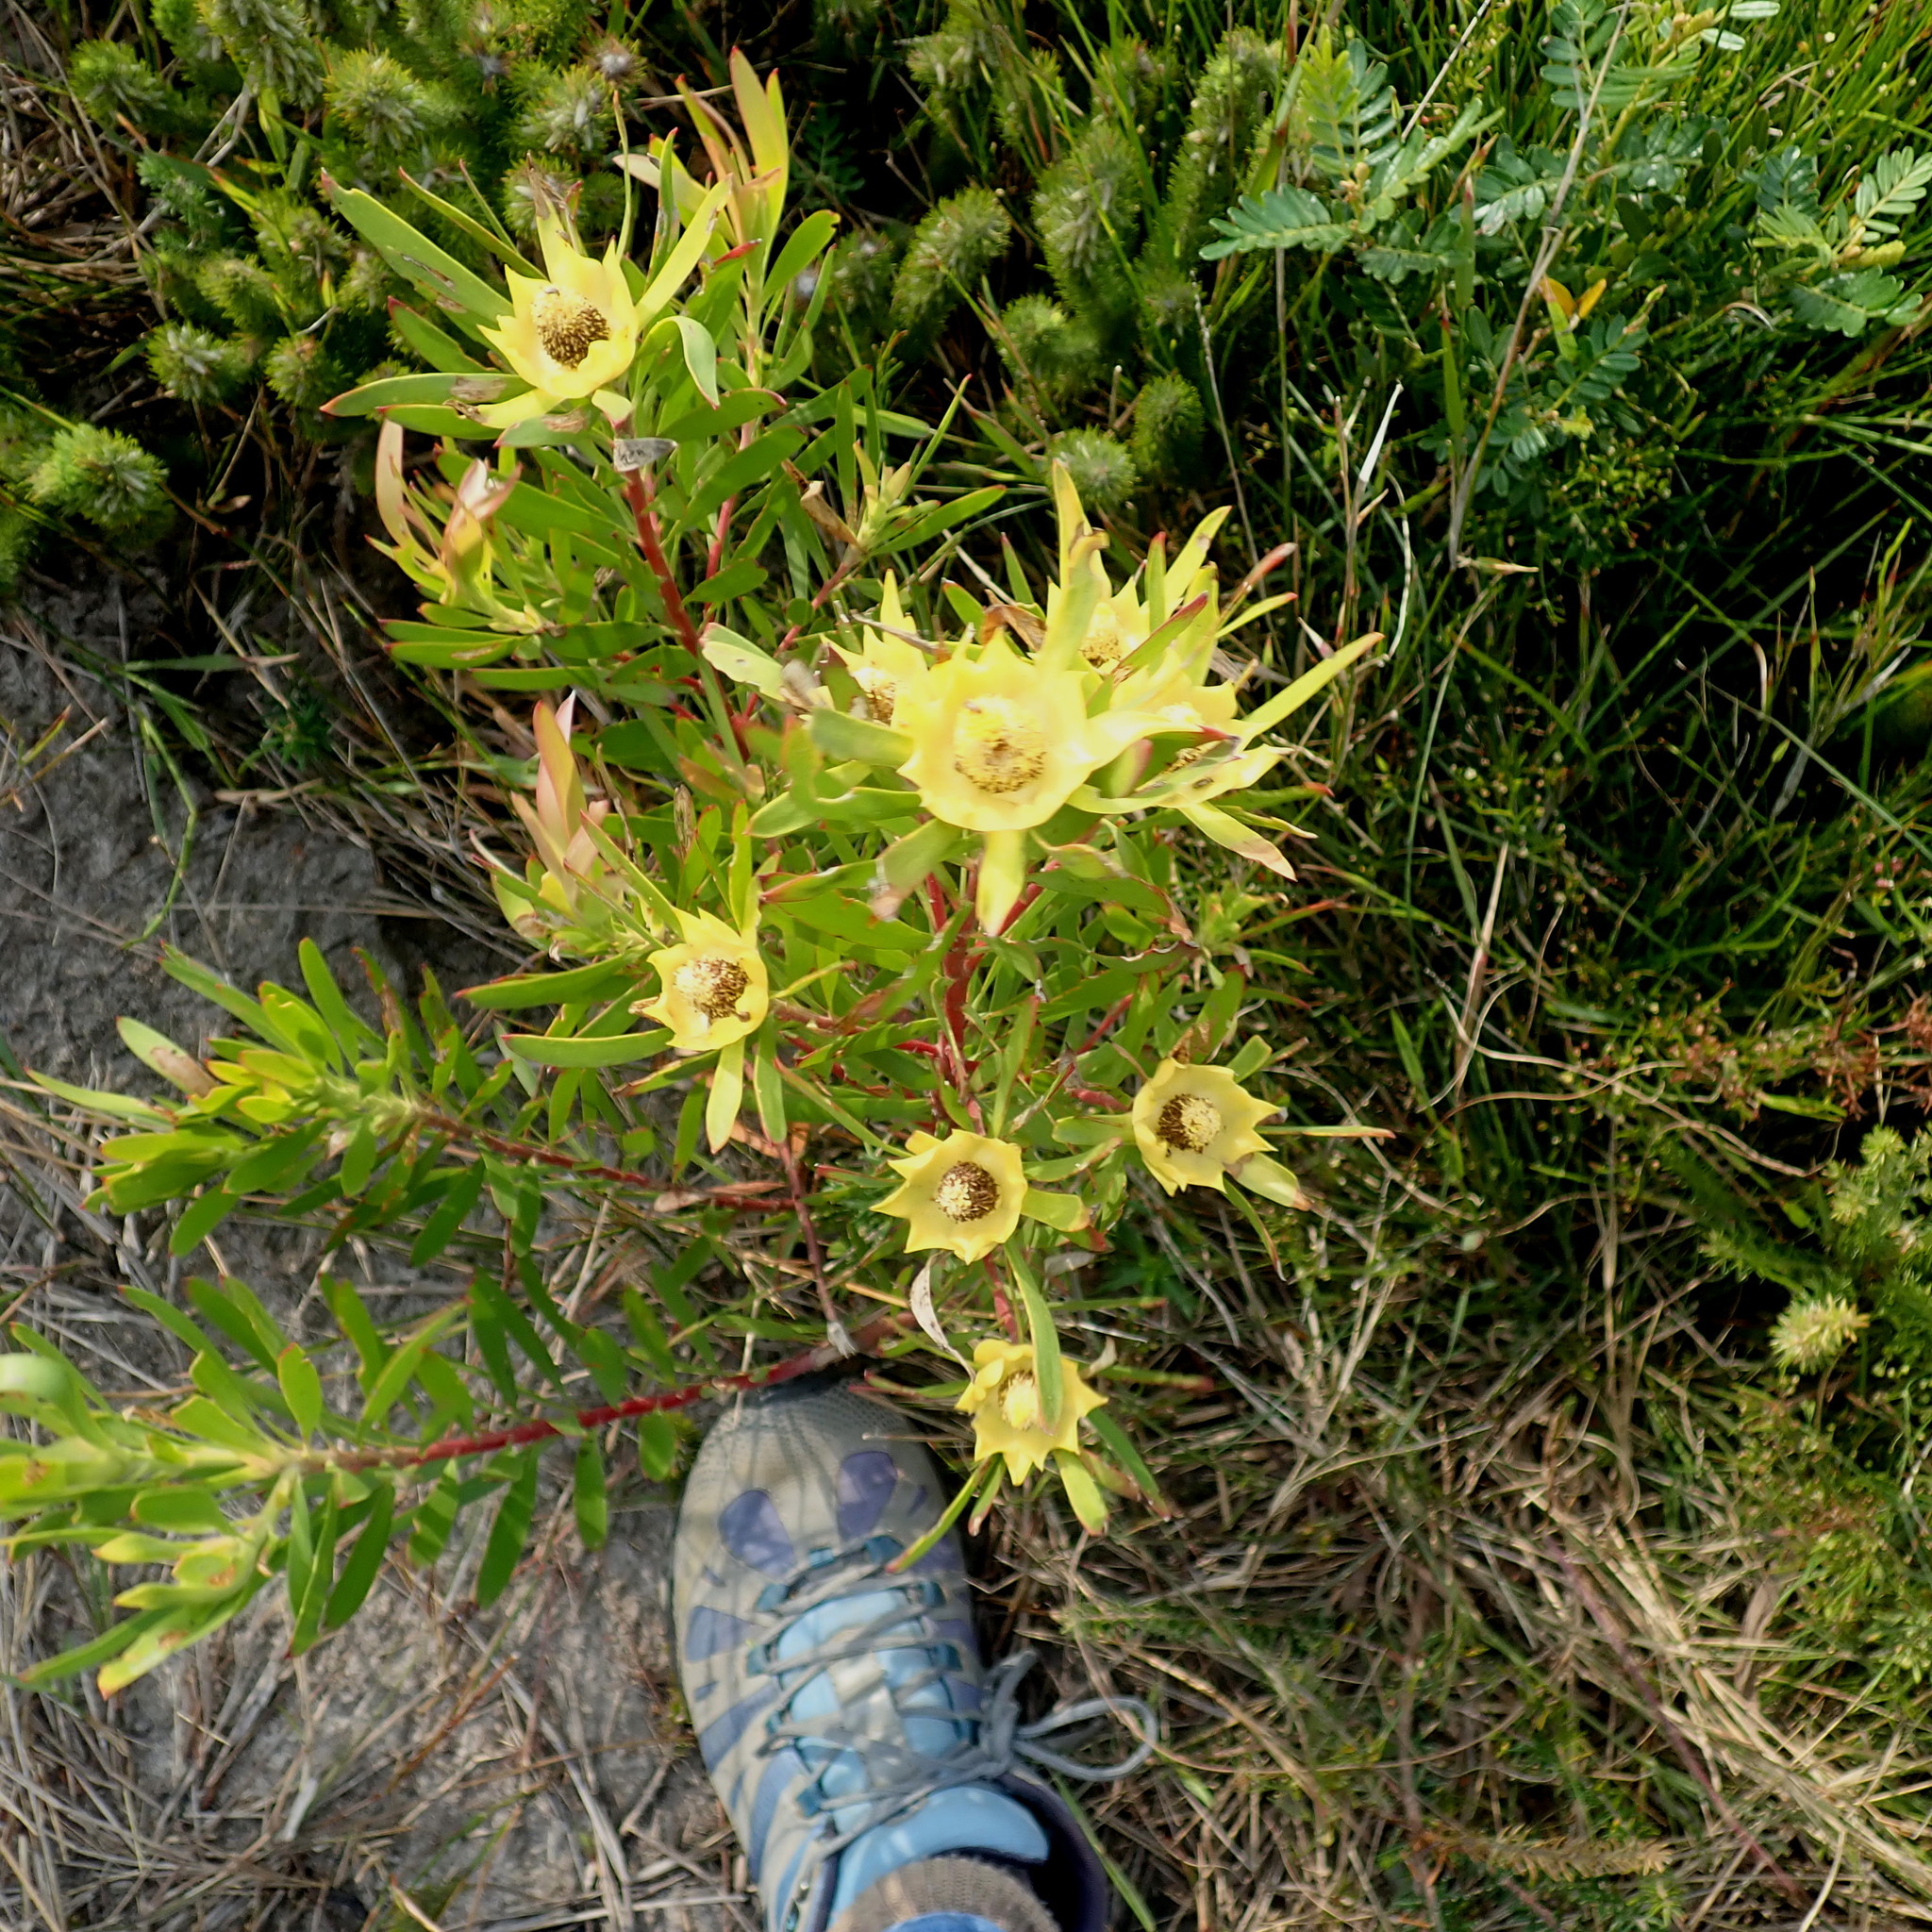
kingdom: Plantae
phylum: Tracheophyta
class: Magnoliopsida
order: Proteales
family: Proteaceae
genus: Leucadendron
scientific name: Leucadendron eucalyptifolium
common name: Gum-leaved conebush
